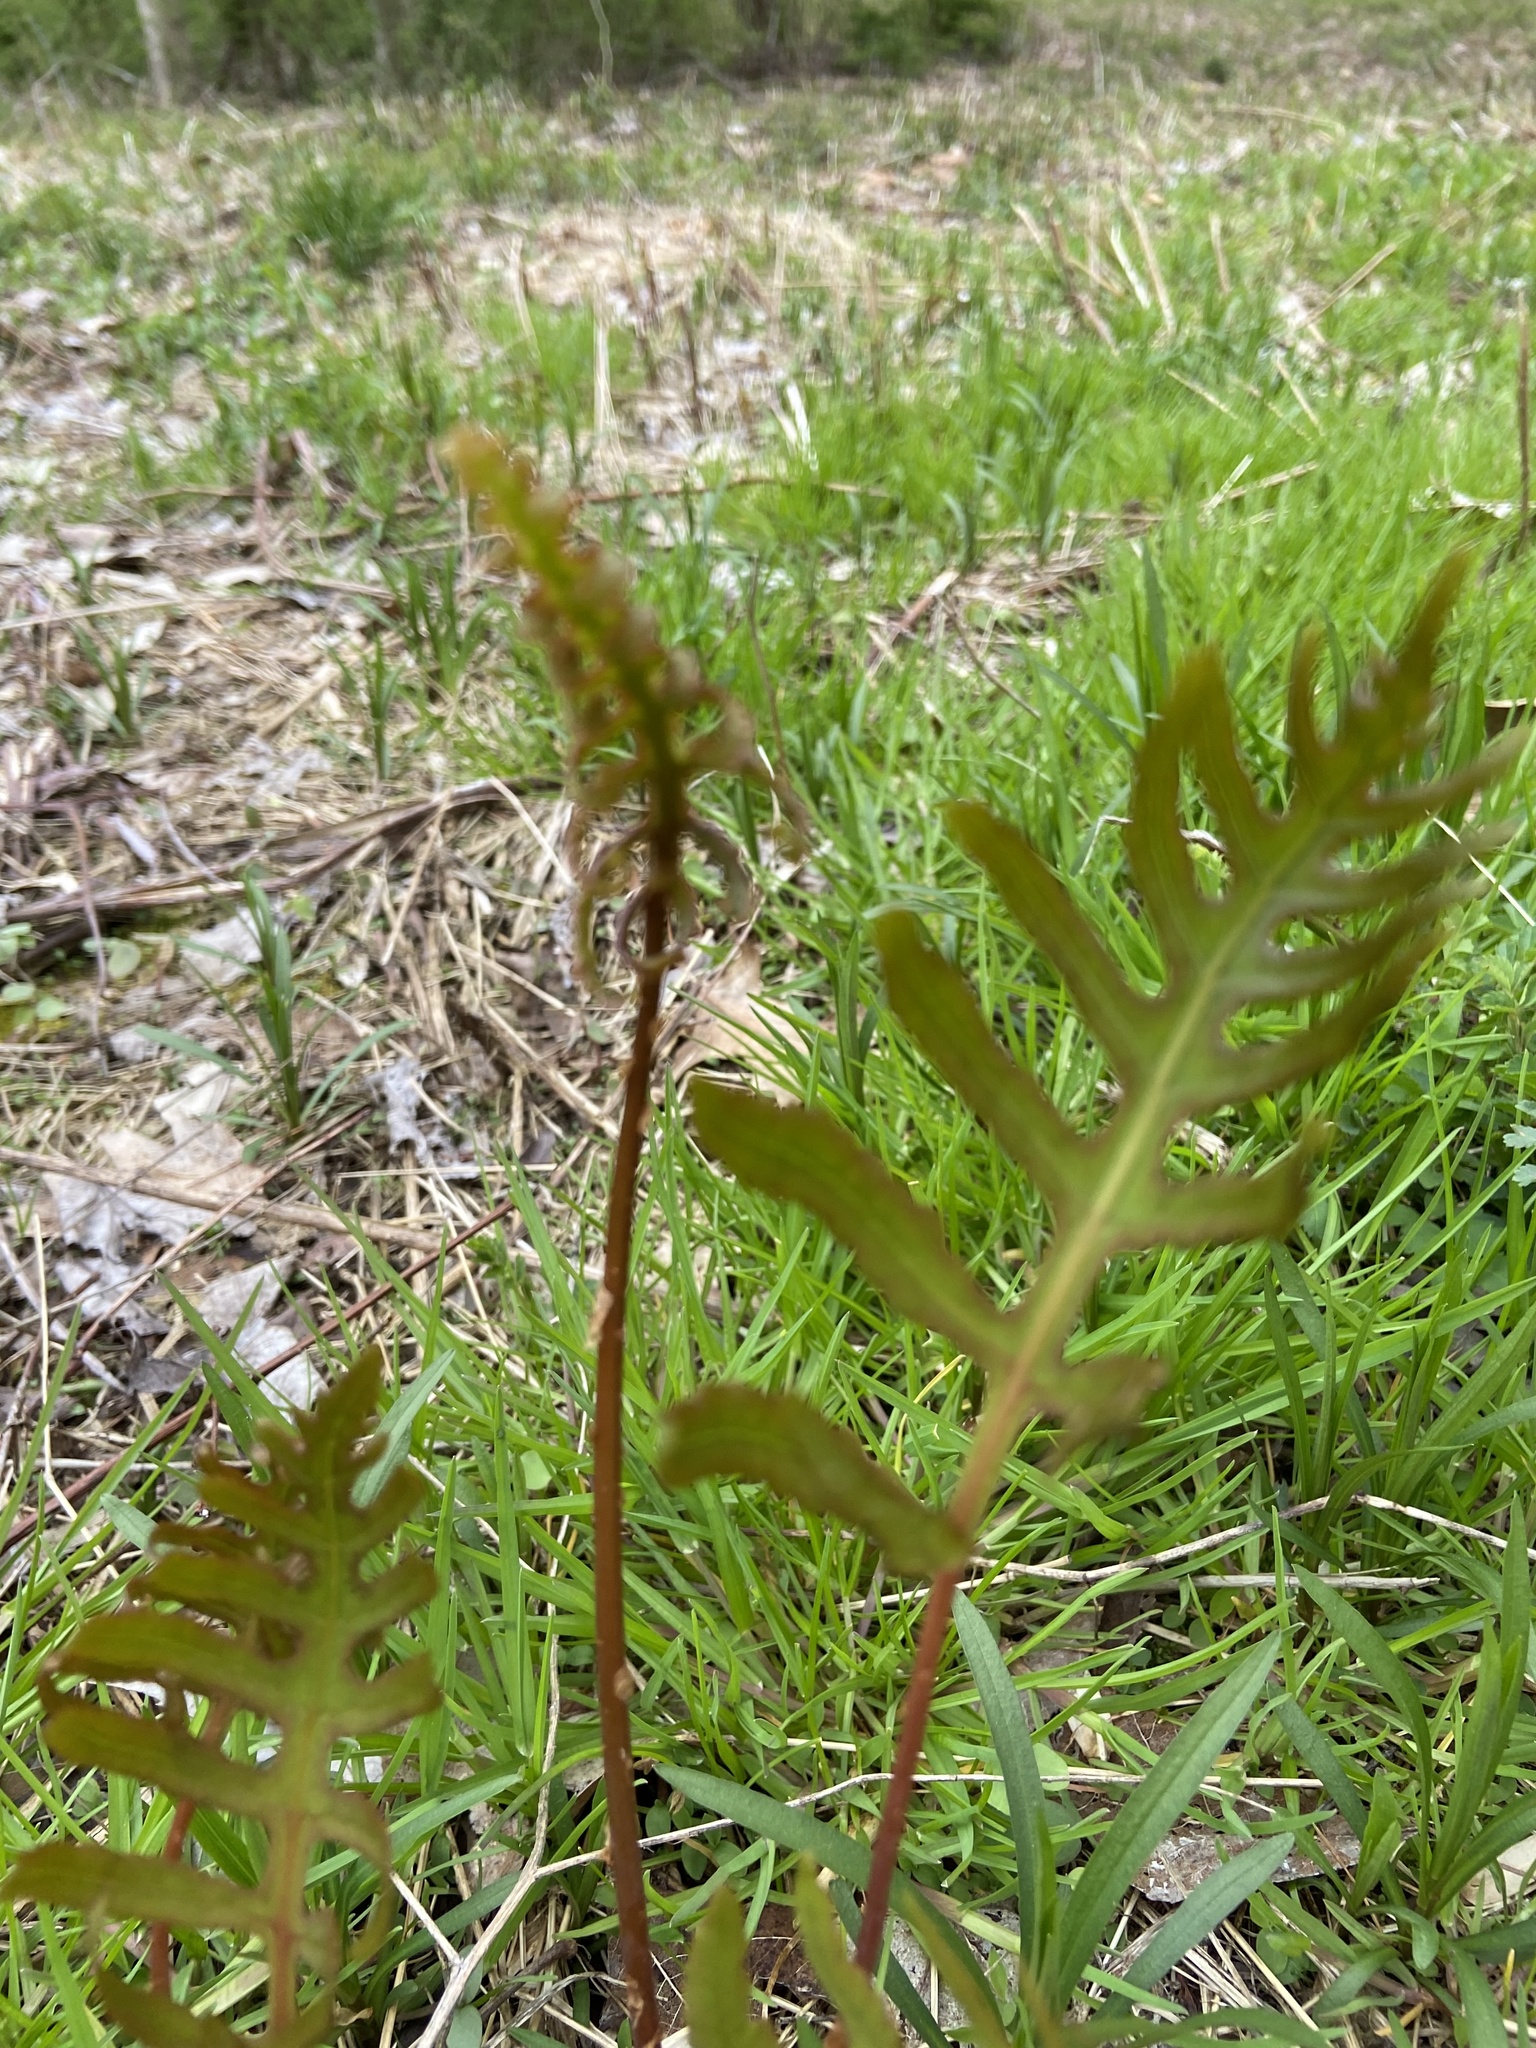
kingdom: Plantae
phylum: Tracheophyta
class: Polypodiopsida
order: Polypodiales
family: Onocleaceae
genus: Onoclea
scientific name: Onoclea sensibilis
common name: Sensitive fern
